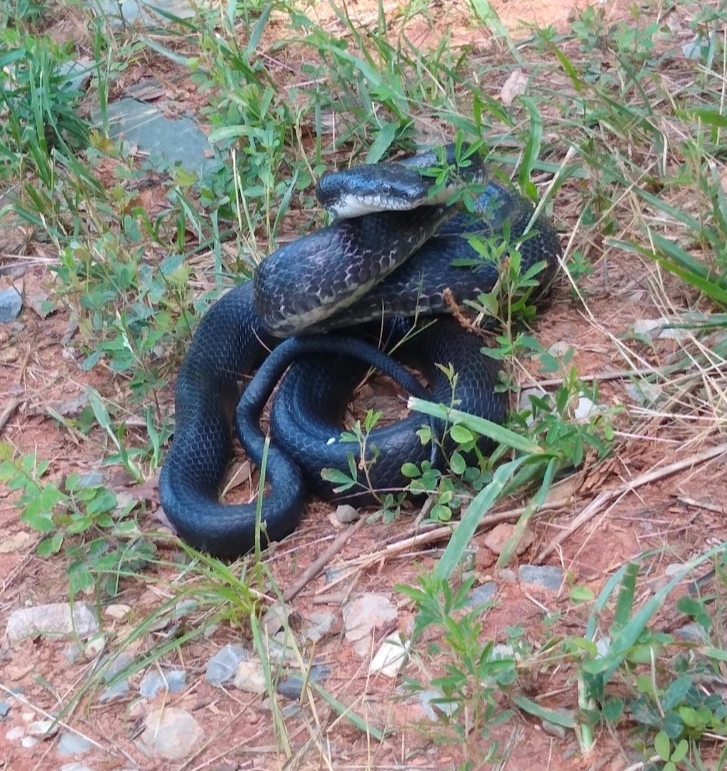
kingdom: Animalia
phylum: Chordata
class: Squamata
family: Colubridae
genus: Pantherophis
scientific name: Pantherophis
